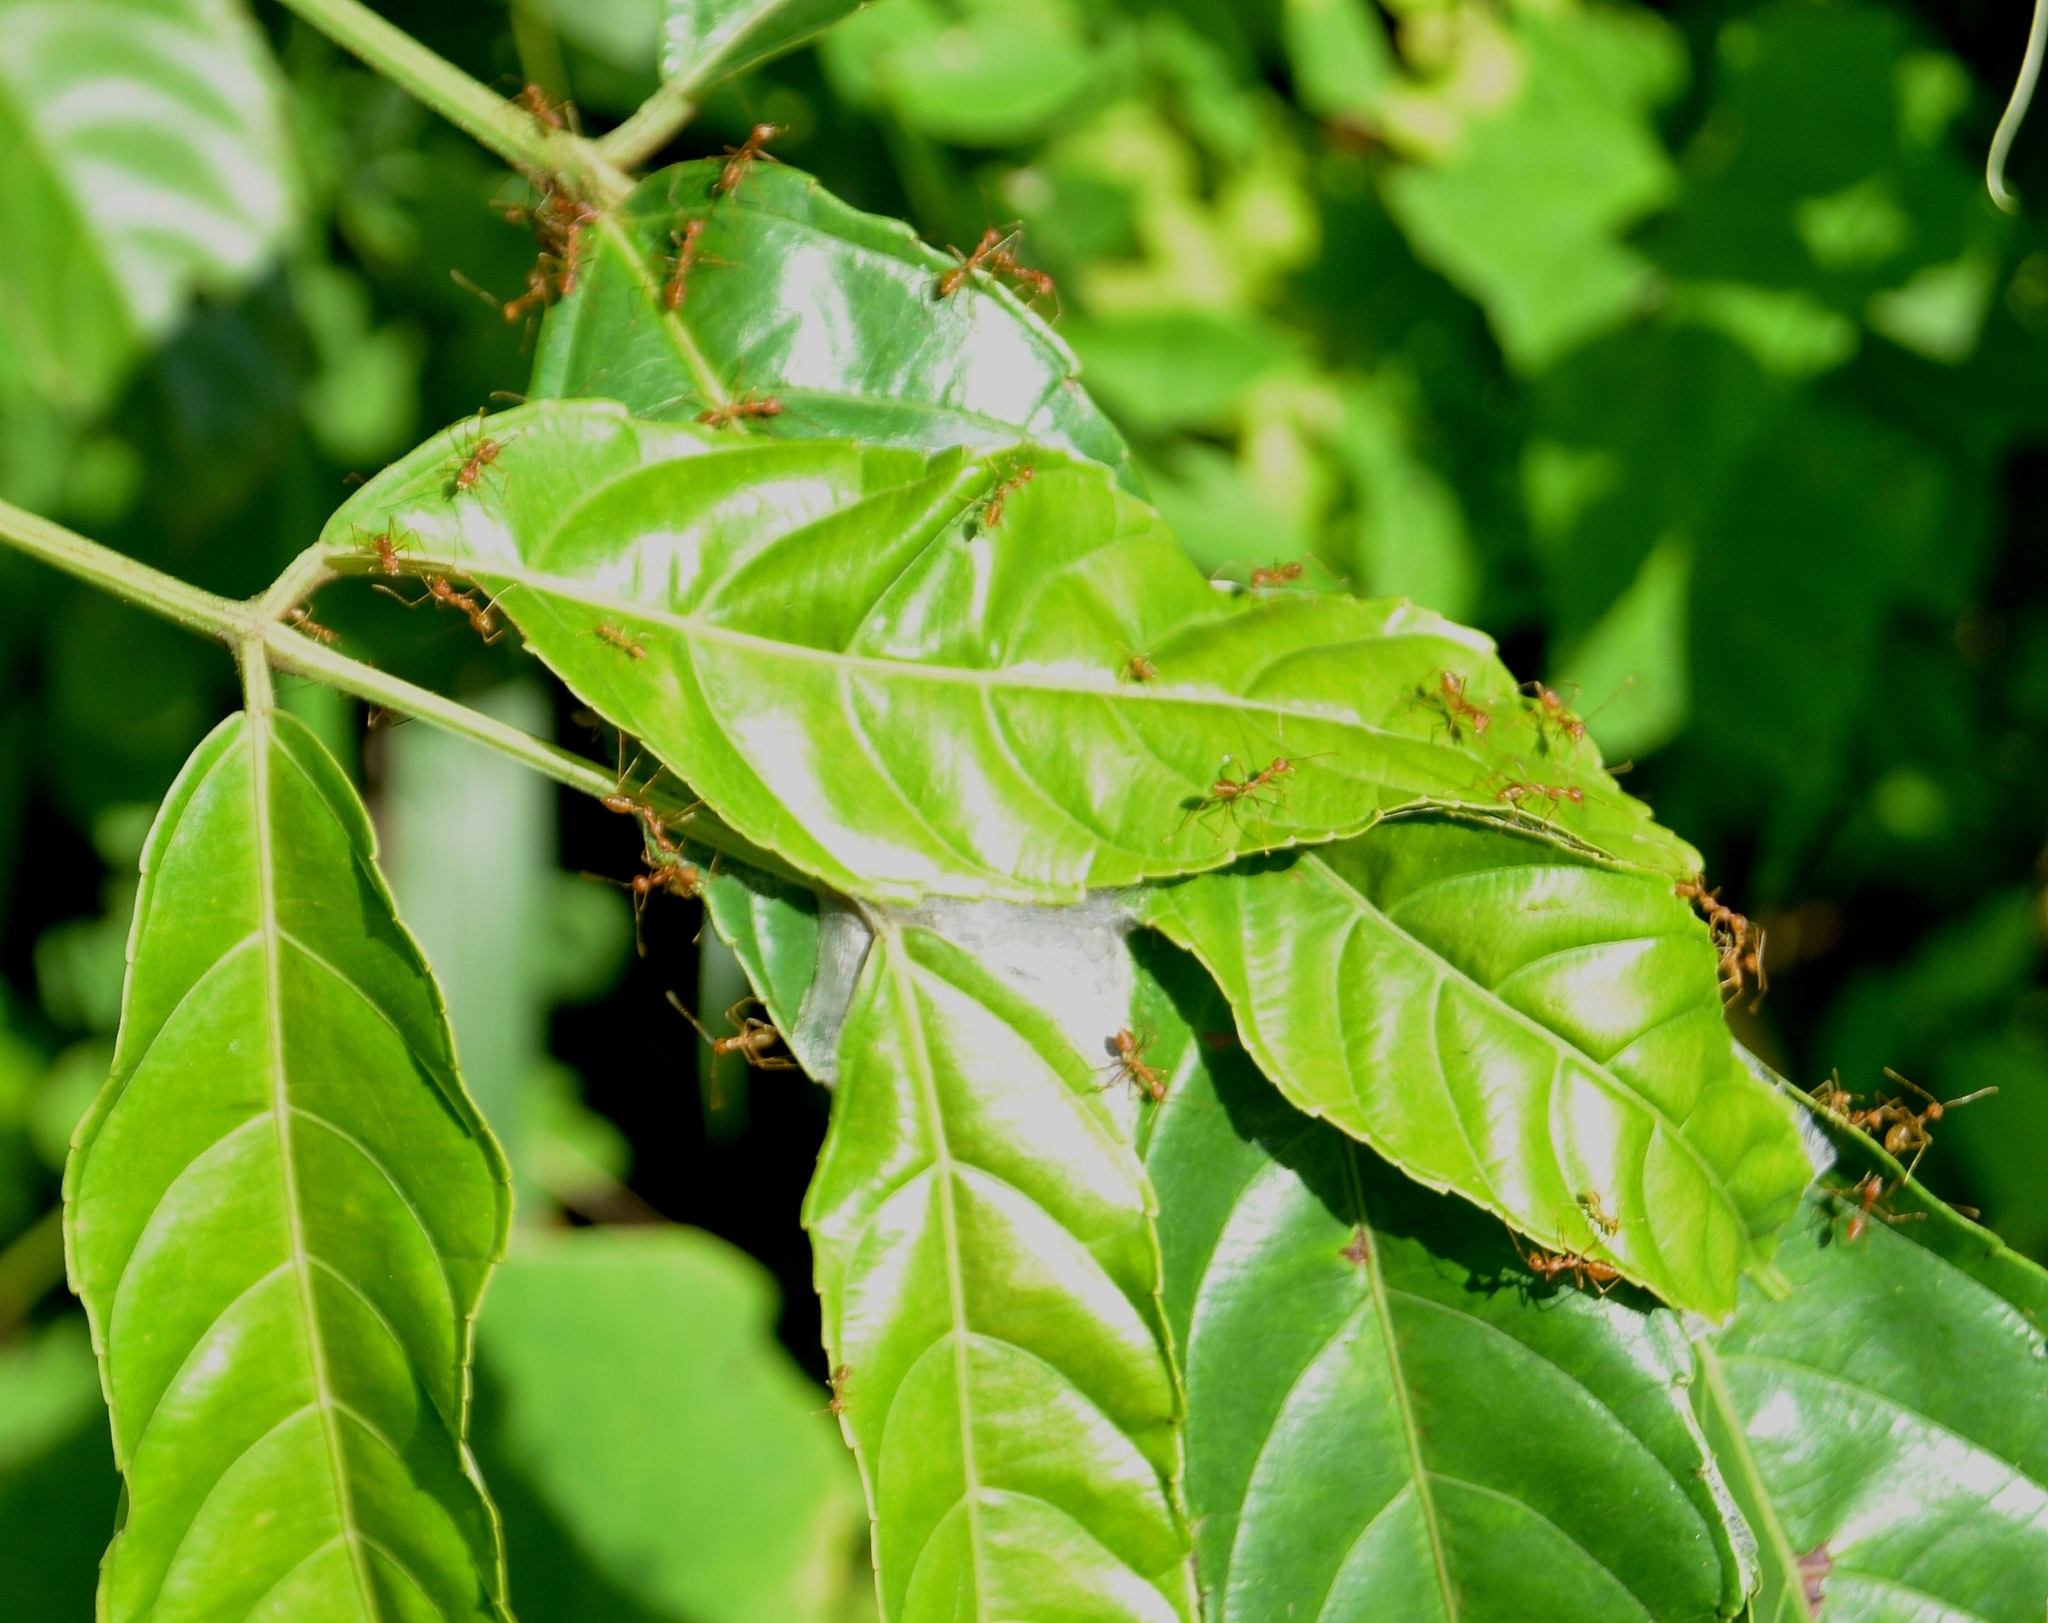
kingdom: Animalia
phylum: Arthropoda
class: Insecta
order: Hymenoptera
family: Formicidae
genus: Oecophylla
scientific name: Oecophylla smaragdina
